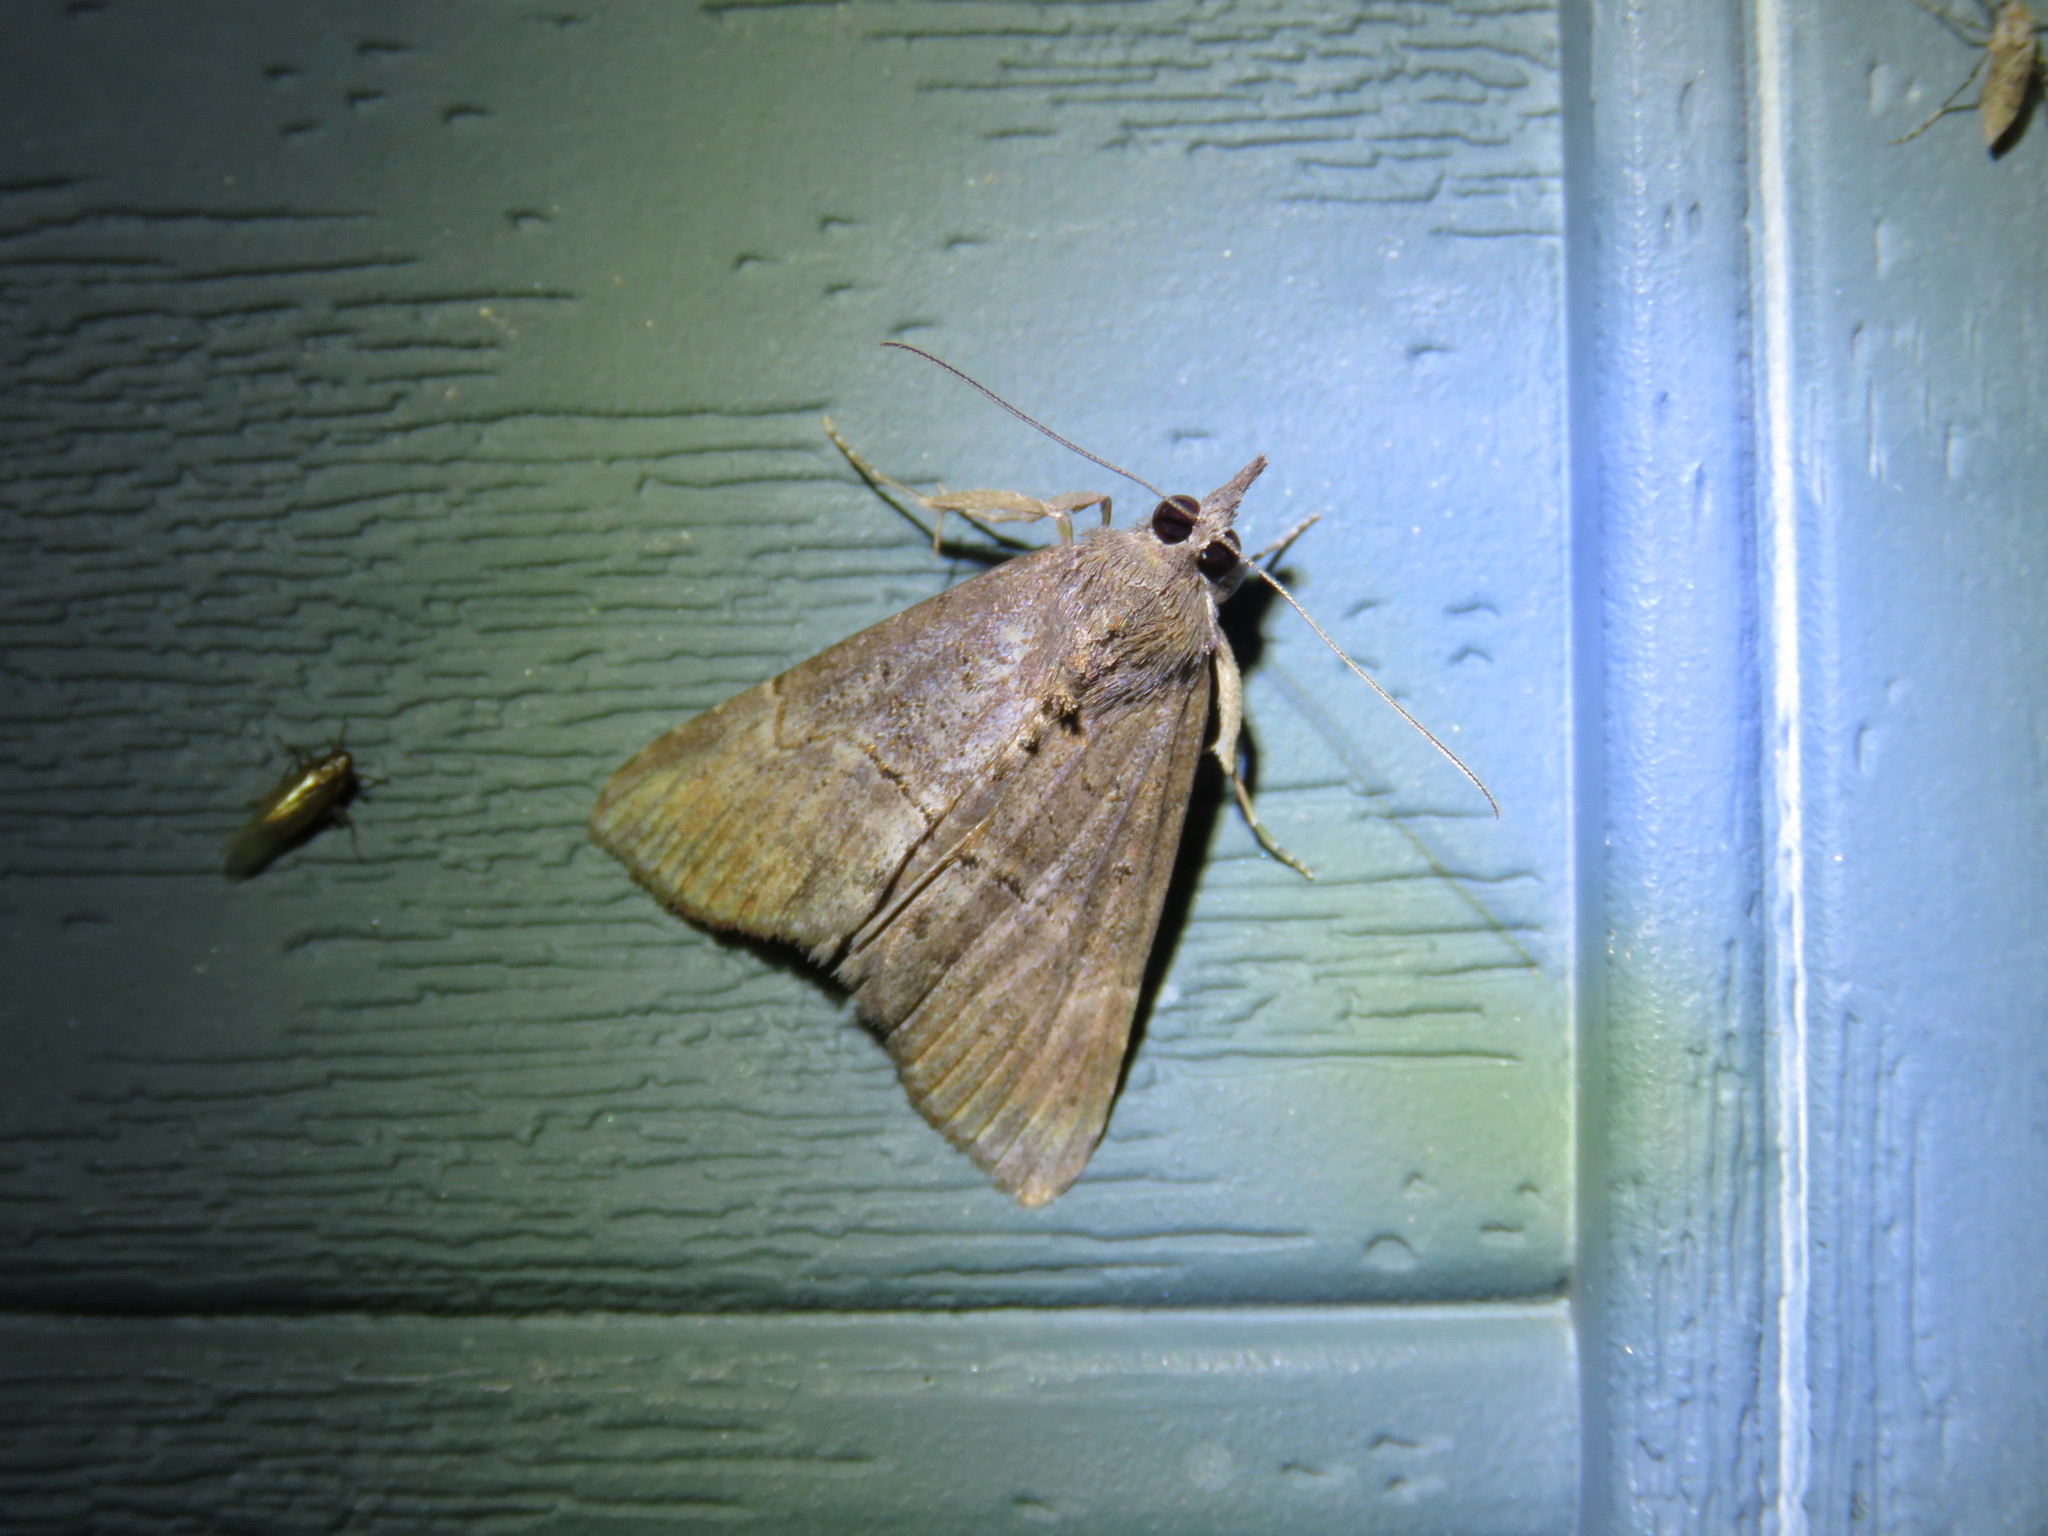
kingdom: Animalia
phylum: Arthropoda
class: Insecta
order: Lepidoptera
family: Erebidae
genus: Hypena
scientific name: Hypena scabra
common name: Green cloverworm
